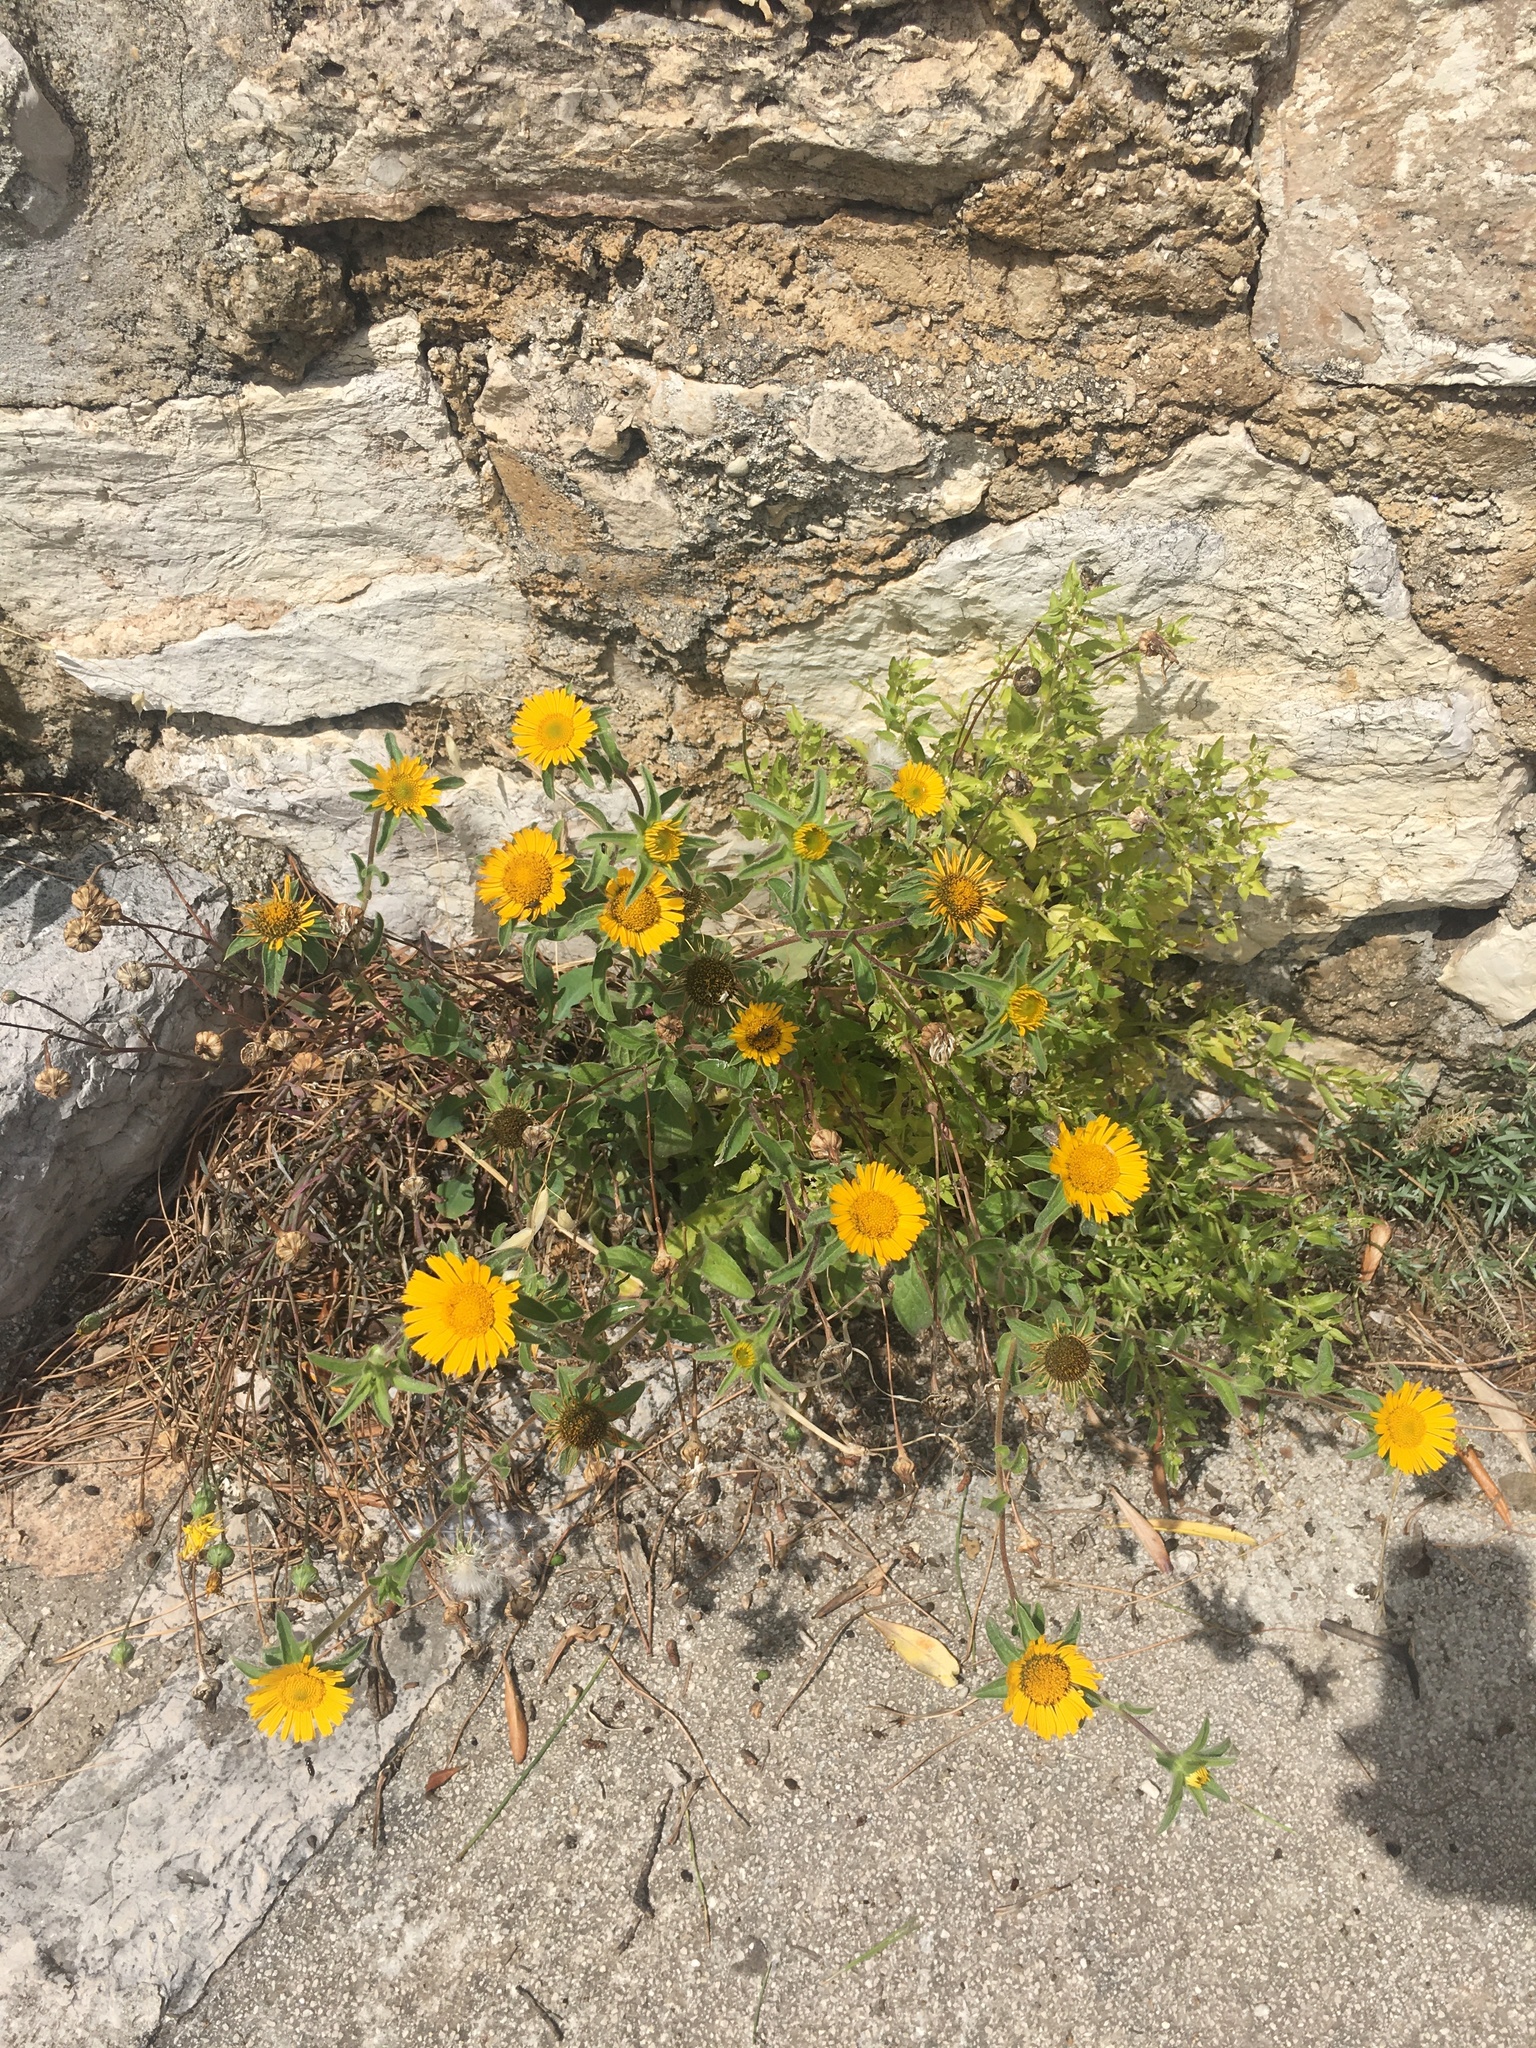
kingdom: Plantae
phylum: Tracheophyta
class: Magnoliopsida
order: Asterales
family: Asteraceae
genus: Cota
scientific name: Cota tinctoria
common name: Golden chamomile
